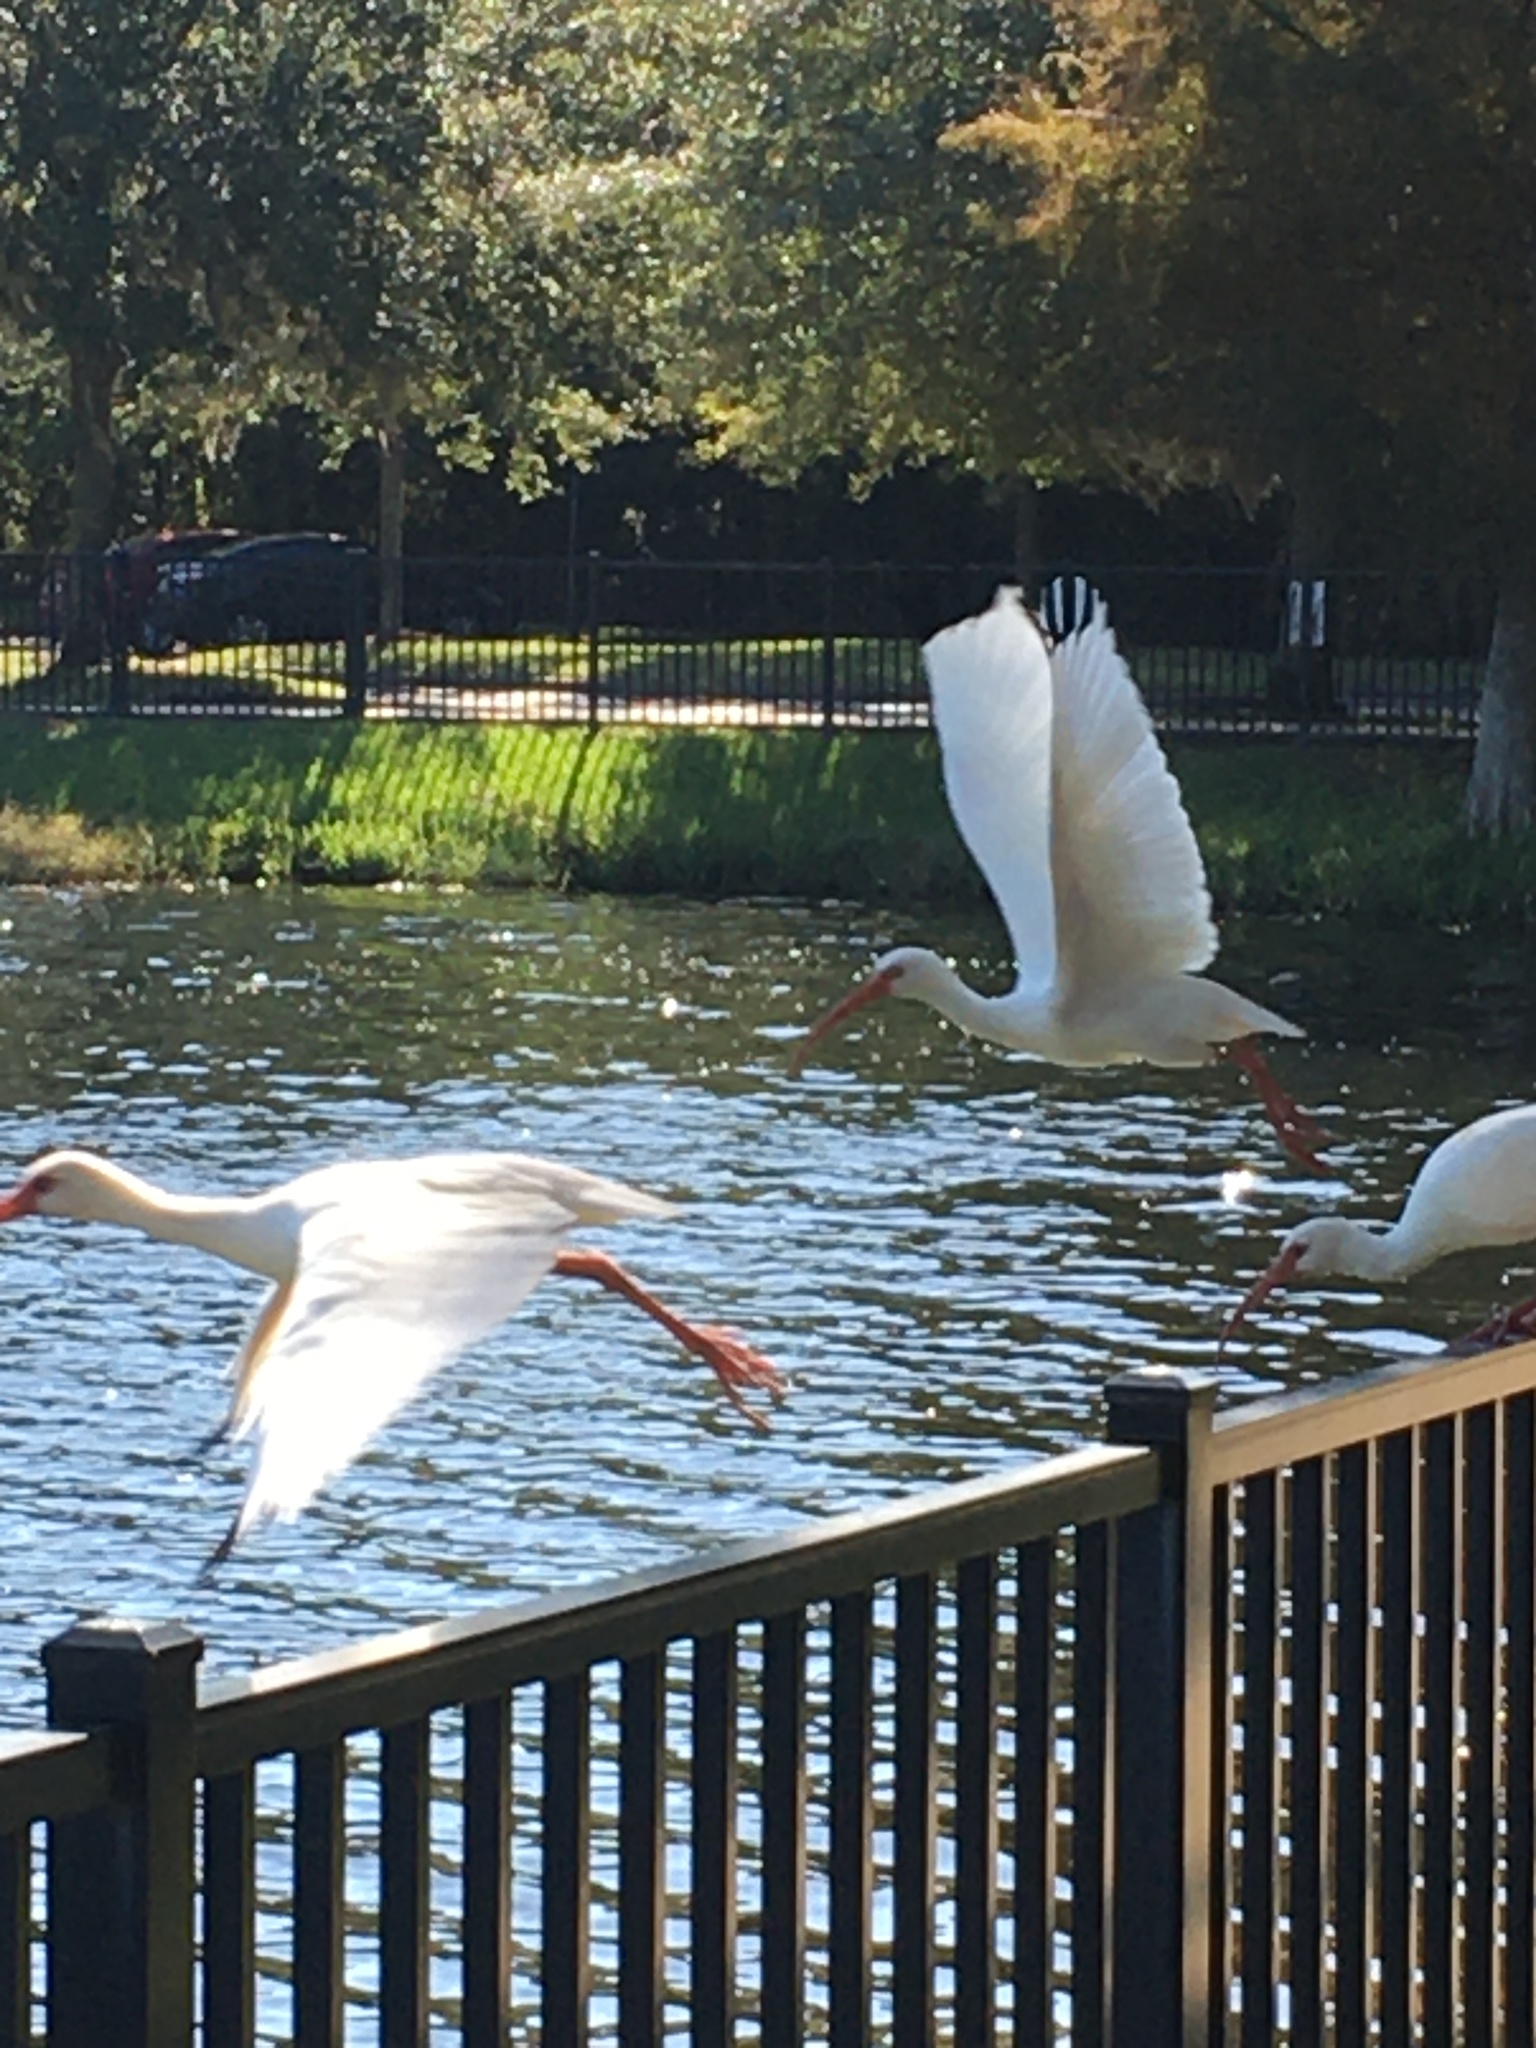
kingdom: Animalia
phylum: Chordata
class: Aves
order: Pelecaniformes
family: Threskiornithidae
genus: Eudocimus
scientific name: Eudocimus albus
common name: White ibis
